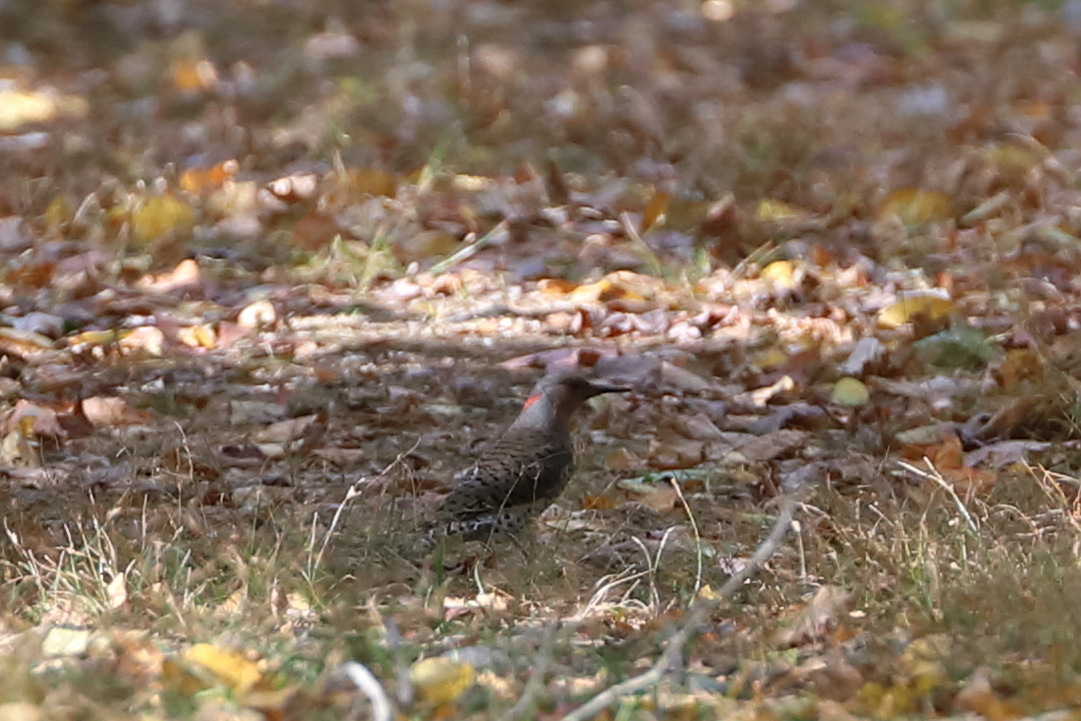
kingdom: Animalia
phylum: Chordata
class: Aves
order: Piciformes
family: Picidae
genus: Colaptes
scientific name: Colaptes auratus
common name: Northern flicker
